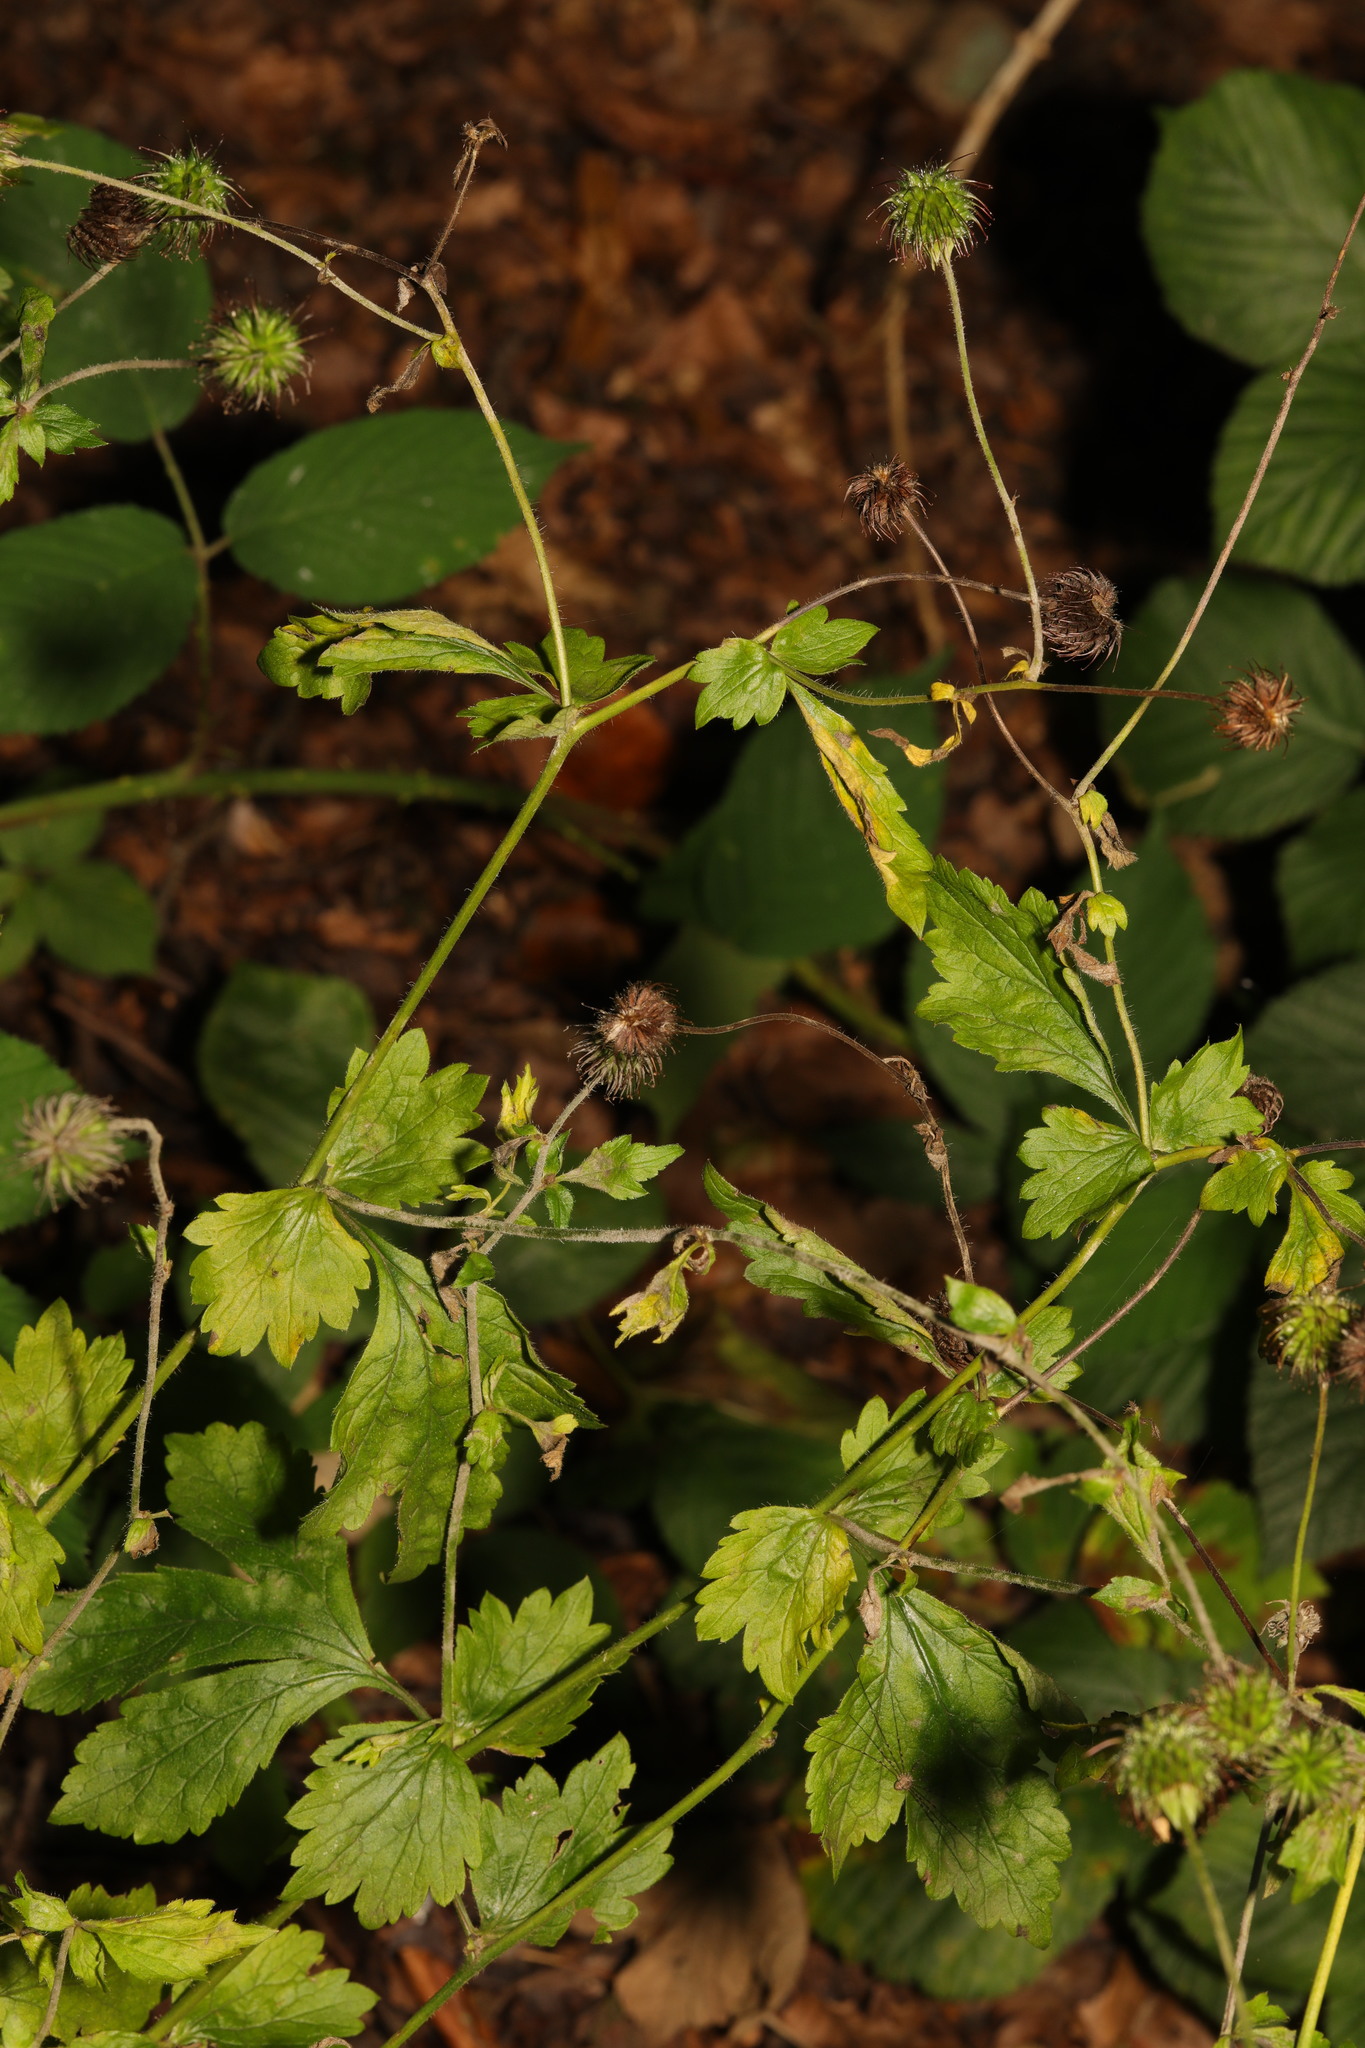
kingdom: Plantae
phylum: Tracheophyta
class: Magnoliopsida
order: Rosales
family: Rosaceae
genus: Geum
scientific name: Geum urbanum
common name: Wood avens
